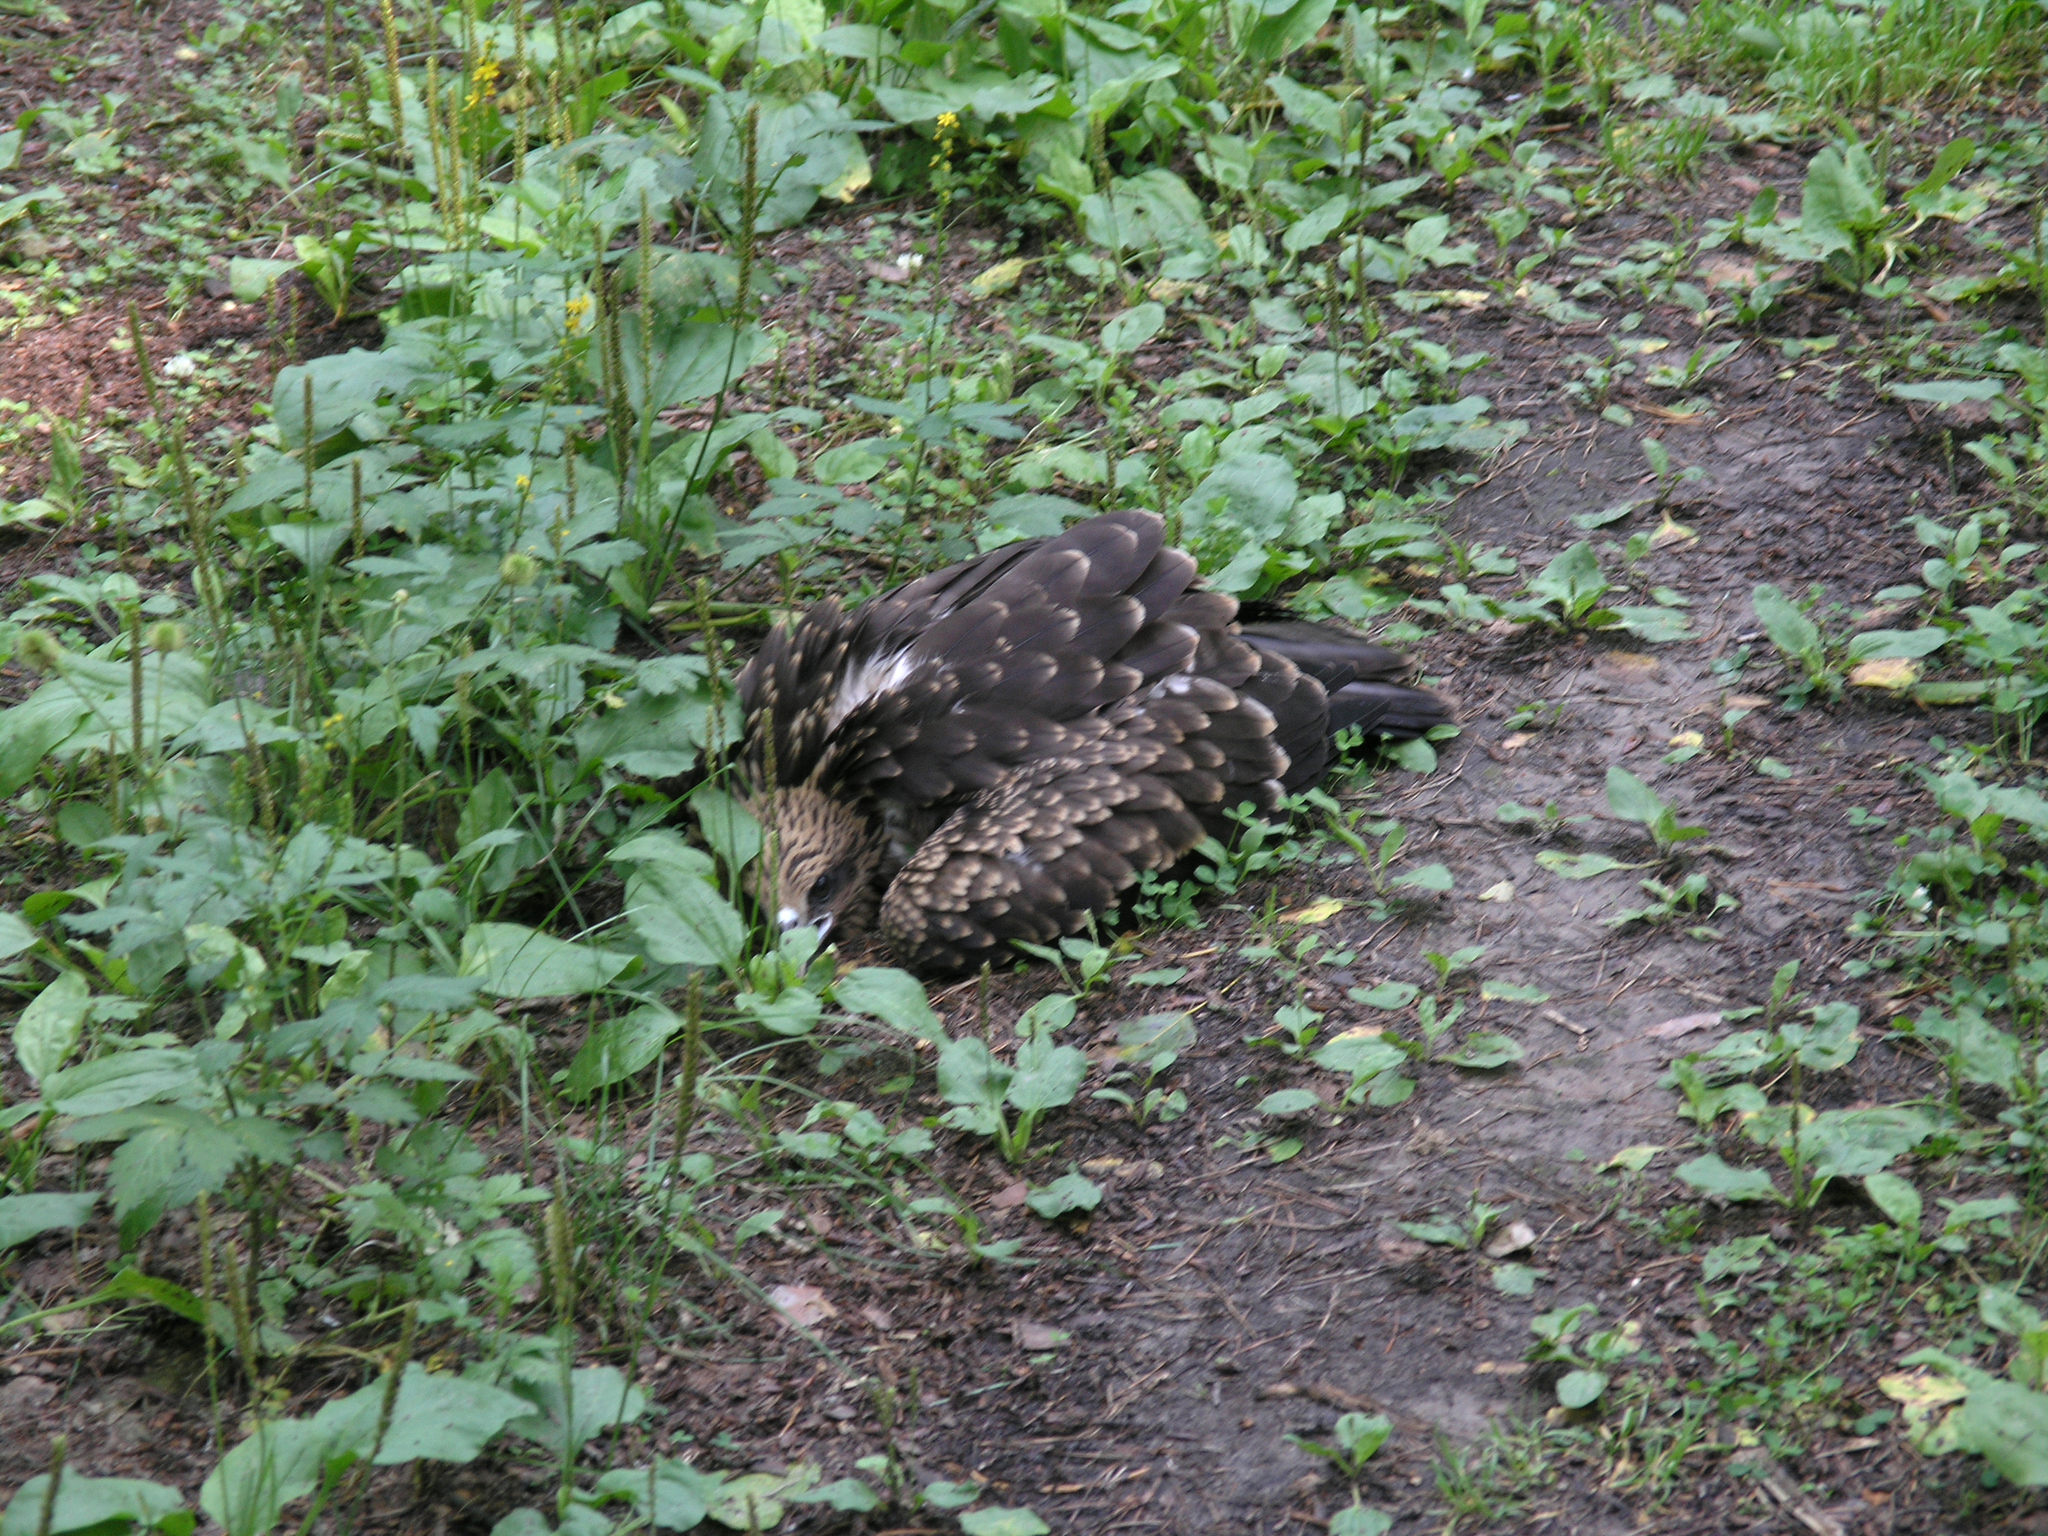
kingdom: Animalia
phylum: Chordata
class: Aves
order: Accipitriformes
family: Accipitridae
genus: Milvus
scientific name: Milvus migrans
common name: Black kite
